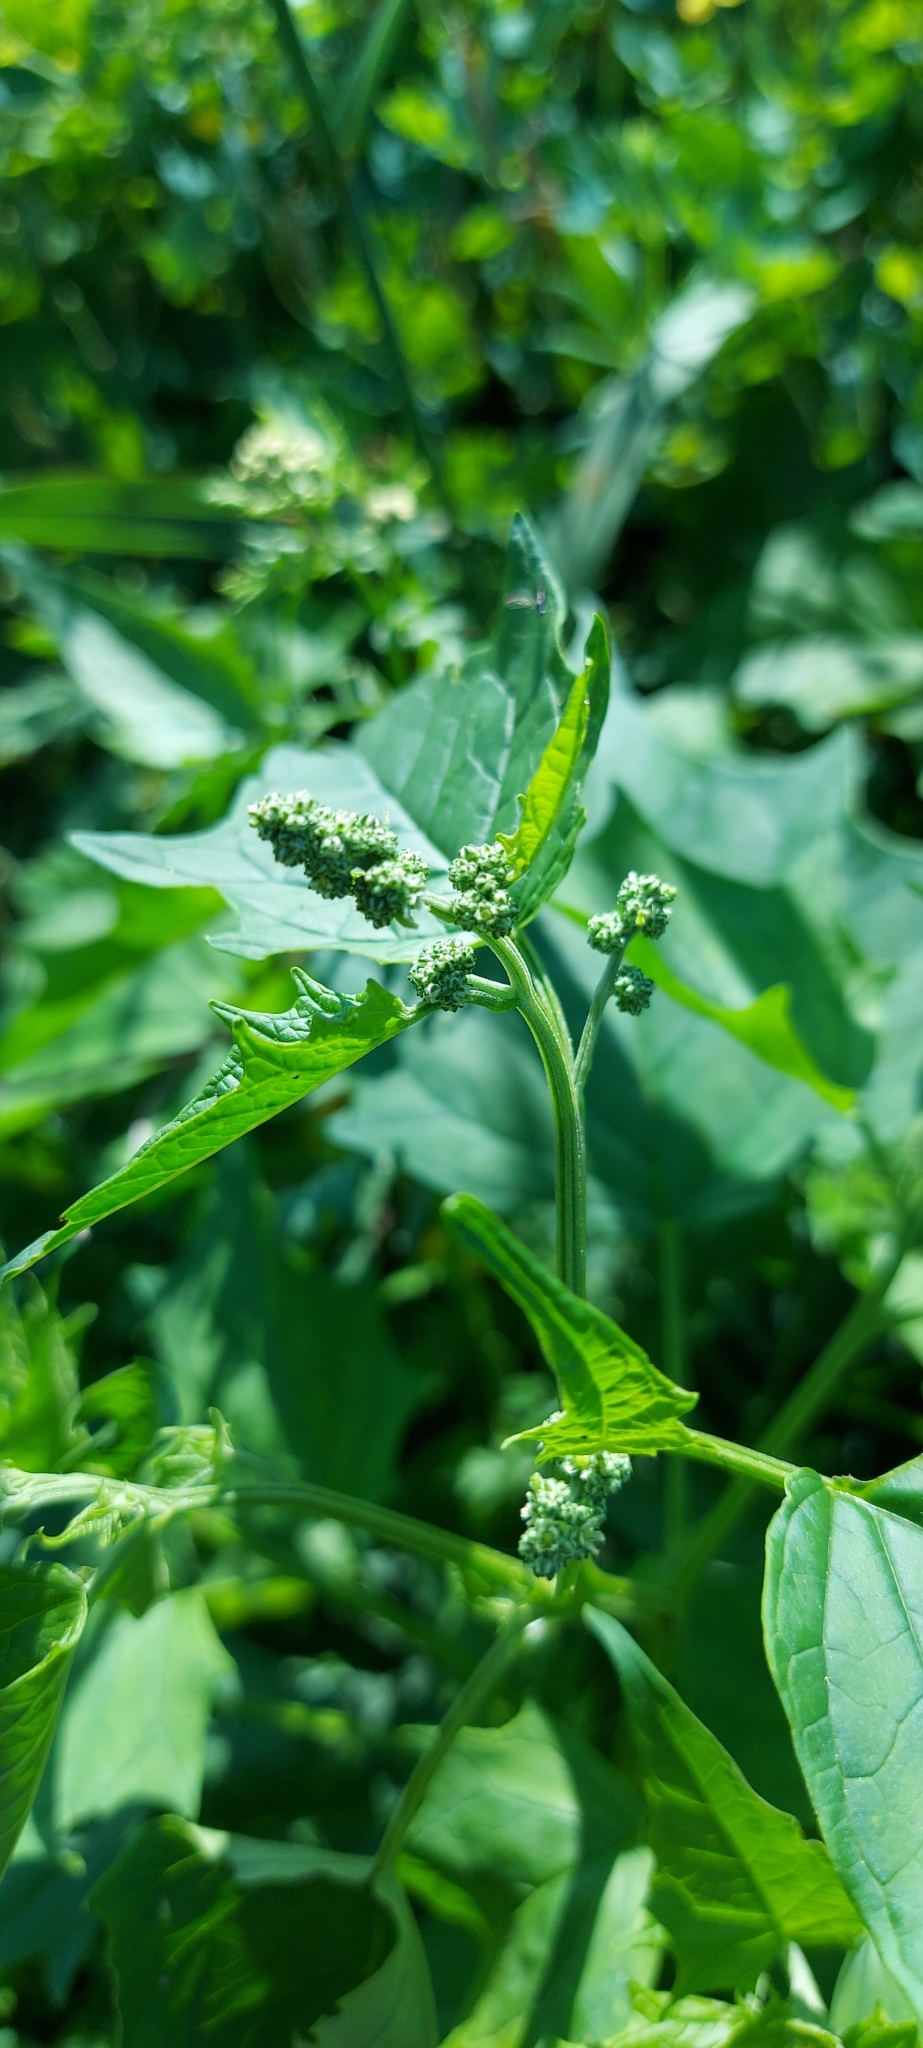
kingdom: Plantae
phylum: Tracheophyta
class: Magnoliopsida
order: Caryophyllales
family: Amaranthaceae
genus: Chenopodiastrum
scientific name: Chenopodiastrum hybridum
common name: Mapleleaf goosefoot
